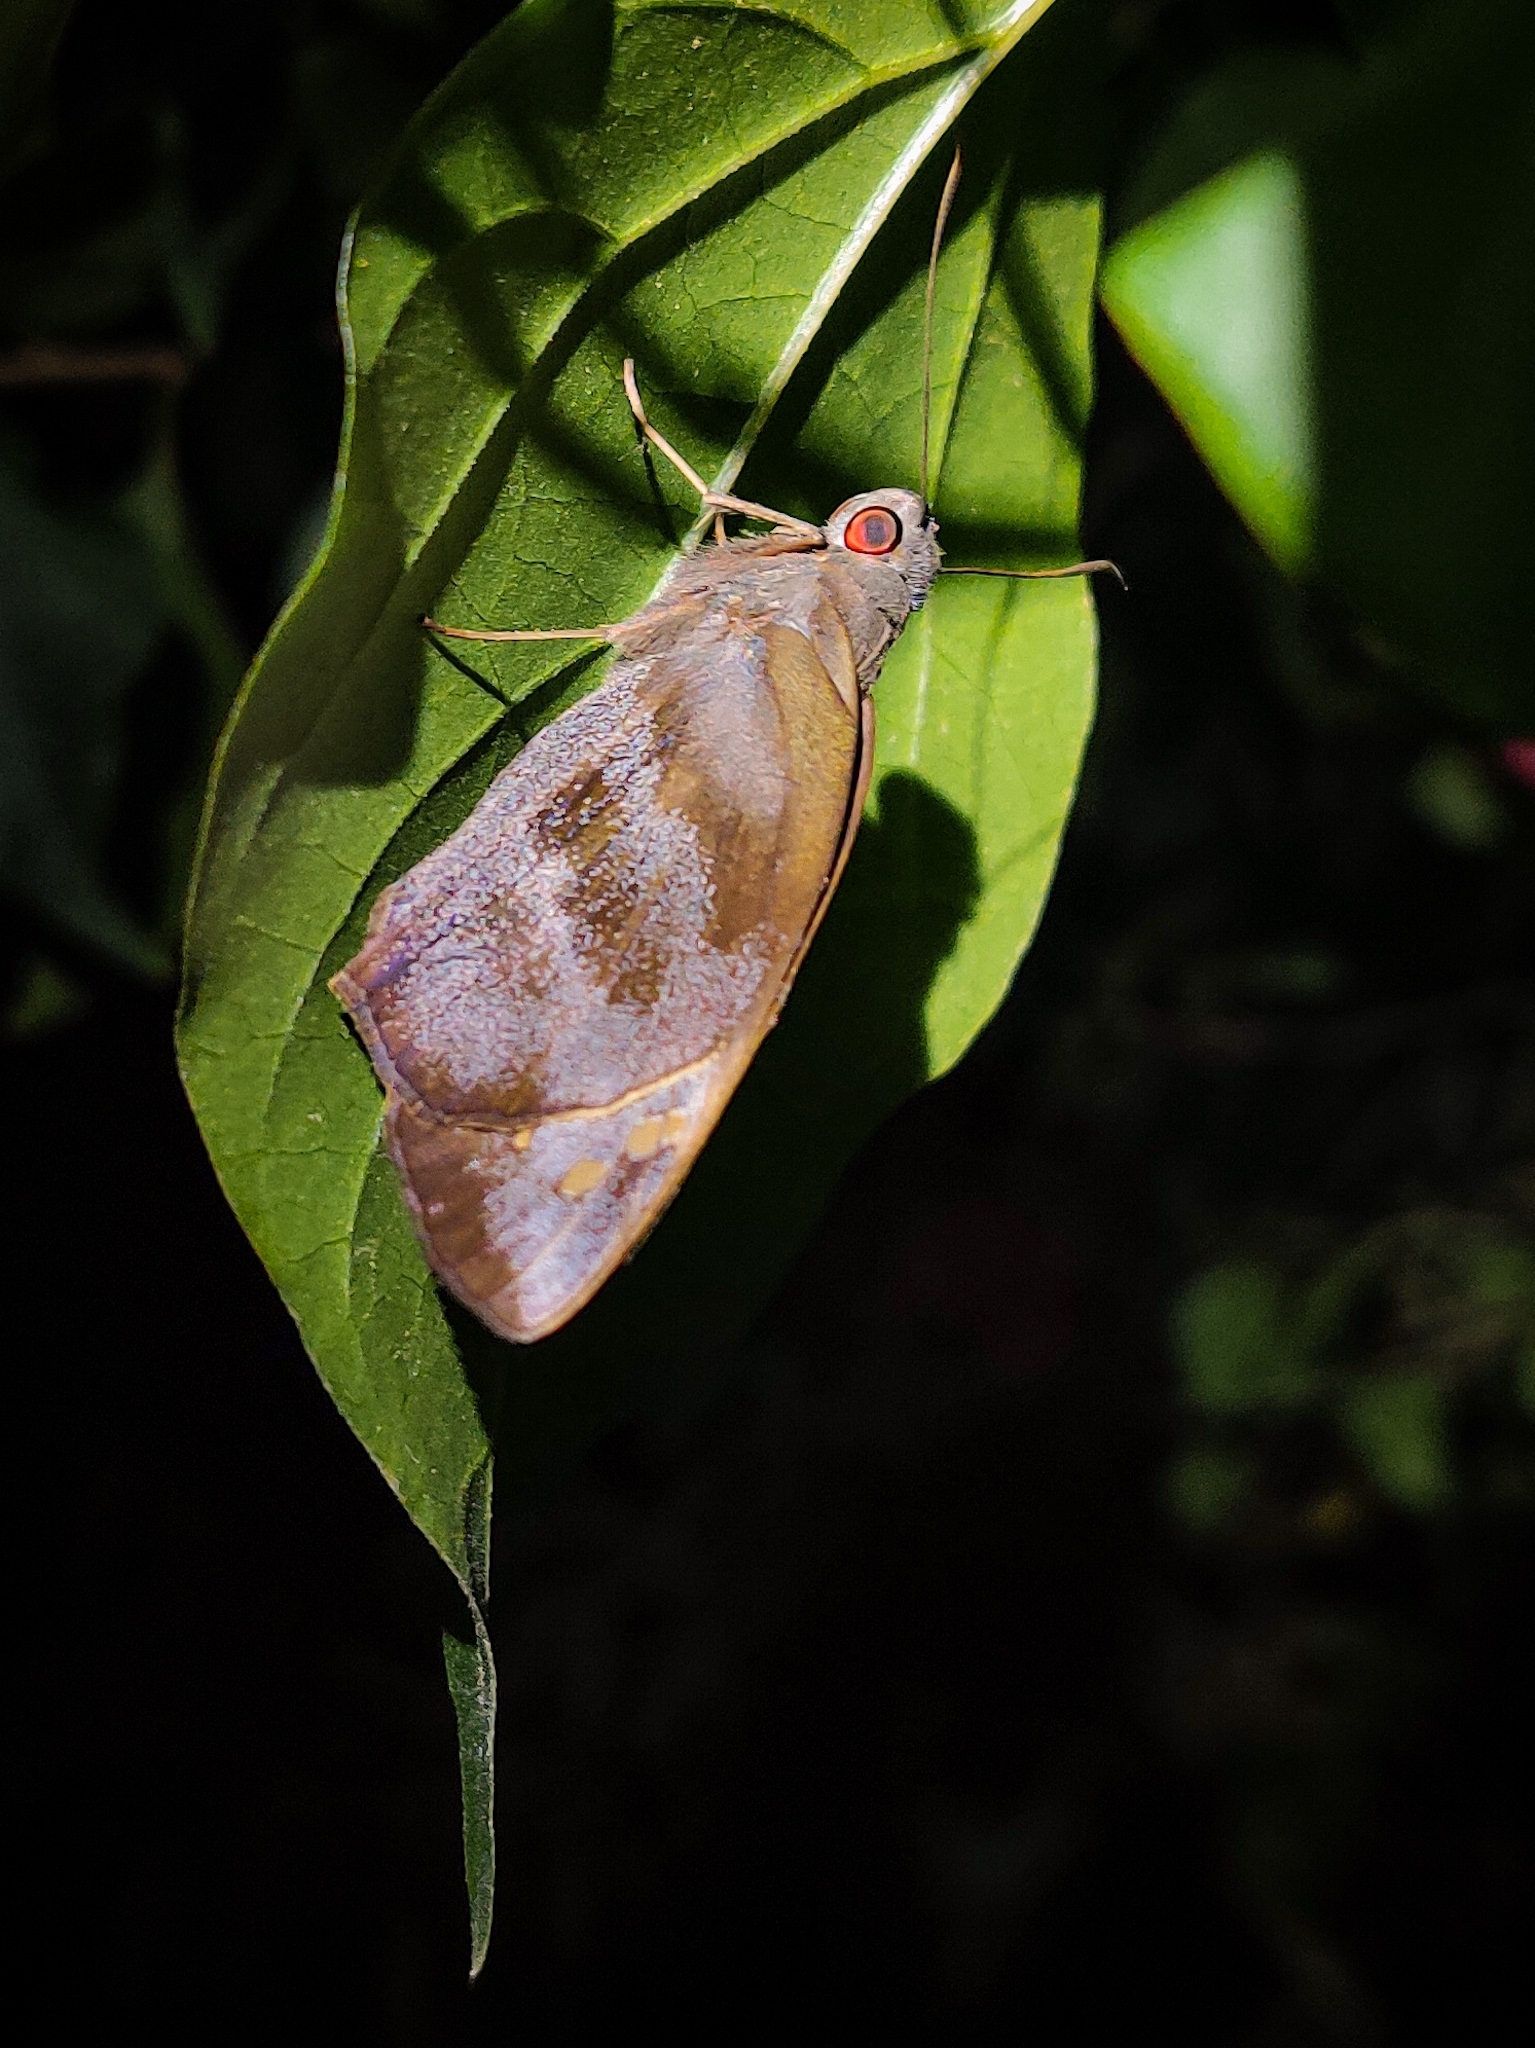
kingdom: Animalia
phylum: Arthropoda
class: Insecta
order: Lepidoptera
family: Hesperiidae
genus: Gangara
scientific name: Gangara thyrsis
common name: Giant redeye
